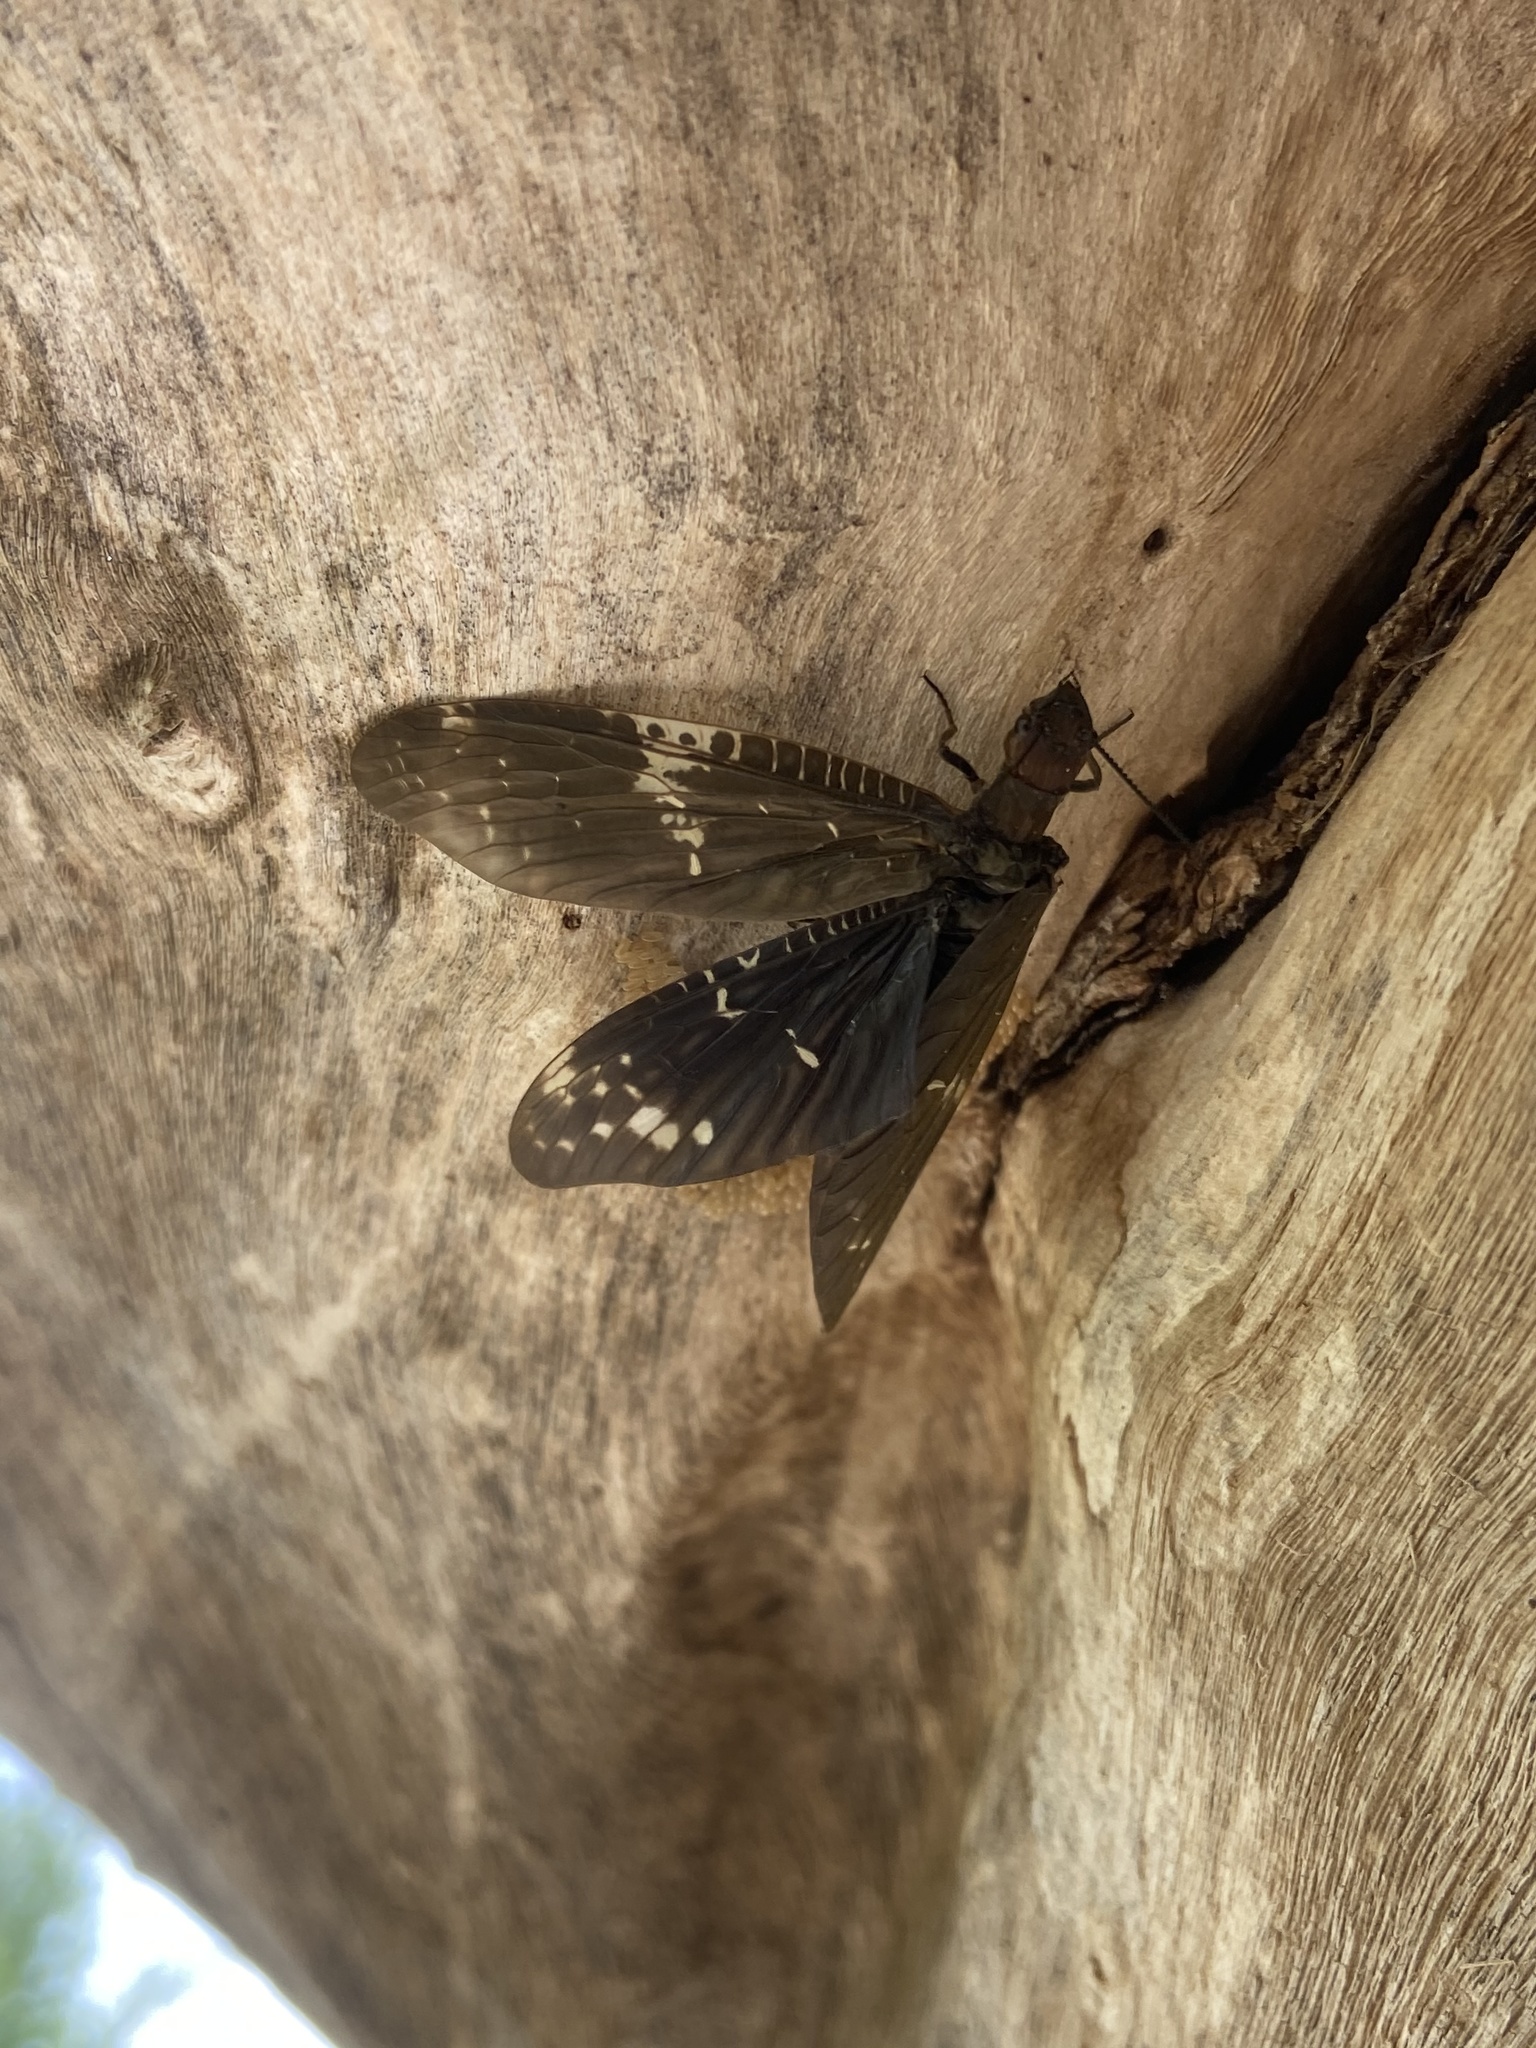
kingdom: Animalia
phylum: Arthropoda
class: Insecta
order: Megaloptera
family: Corydalidae
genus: Nigronia
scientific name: Nigronia serricornis
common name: Serrate dark fishfly
